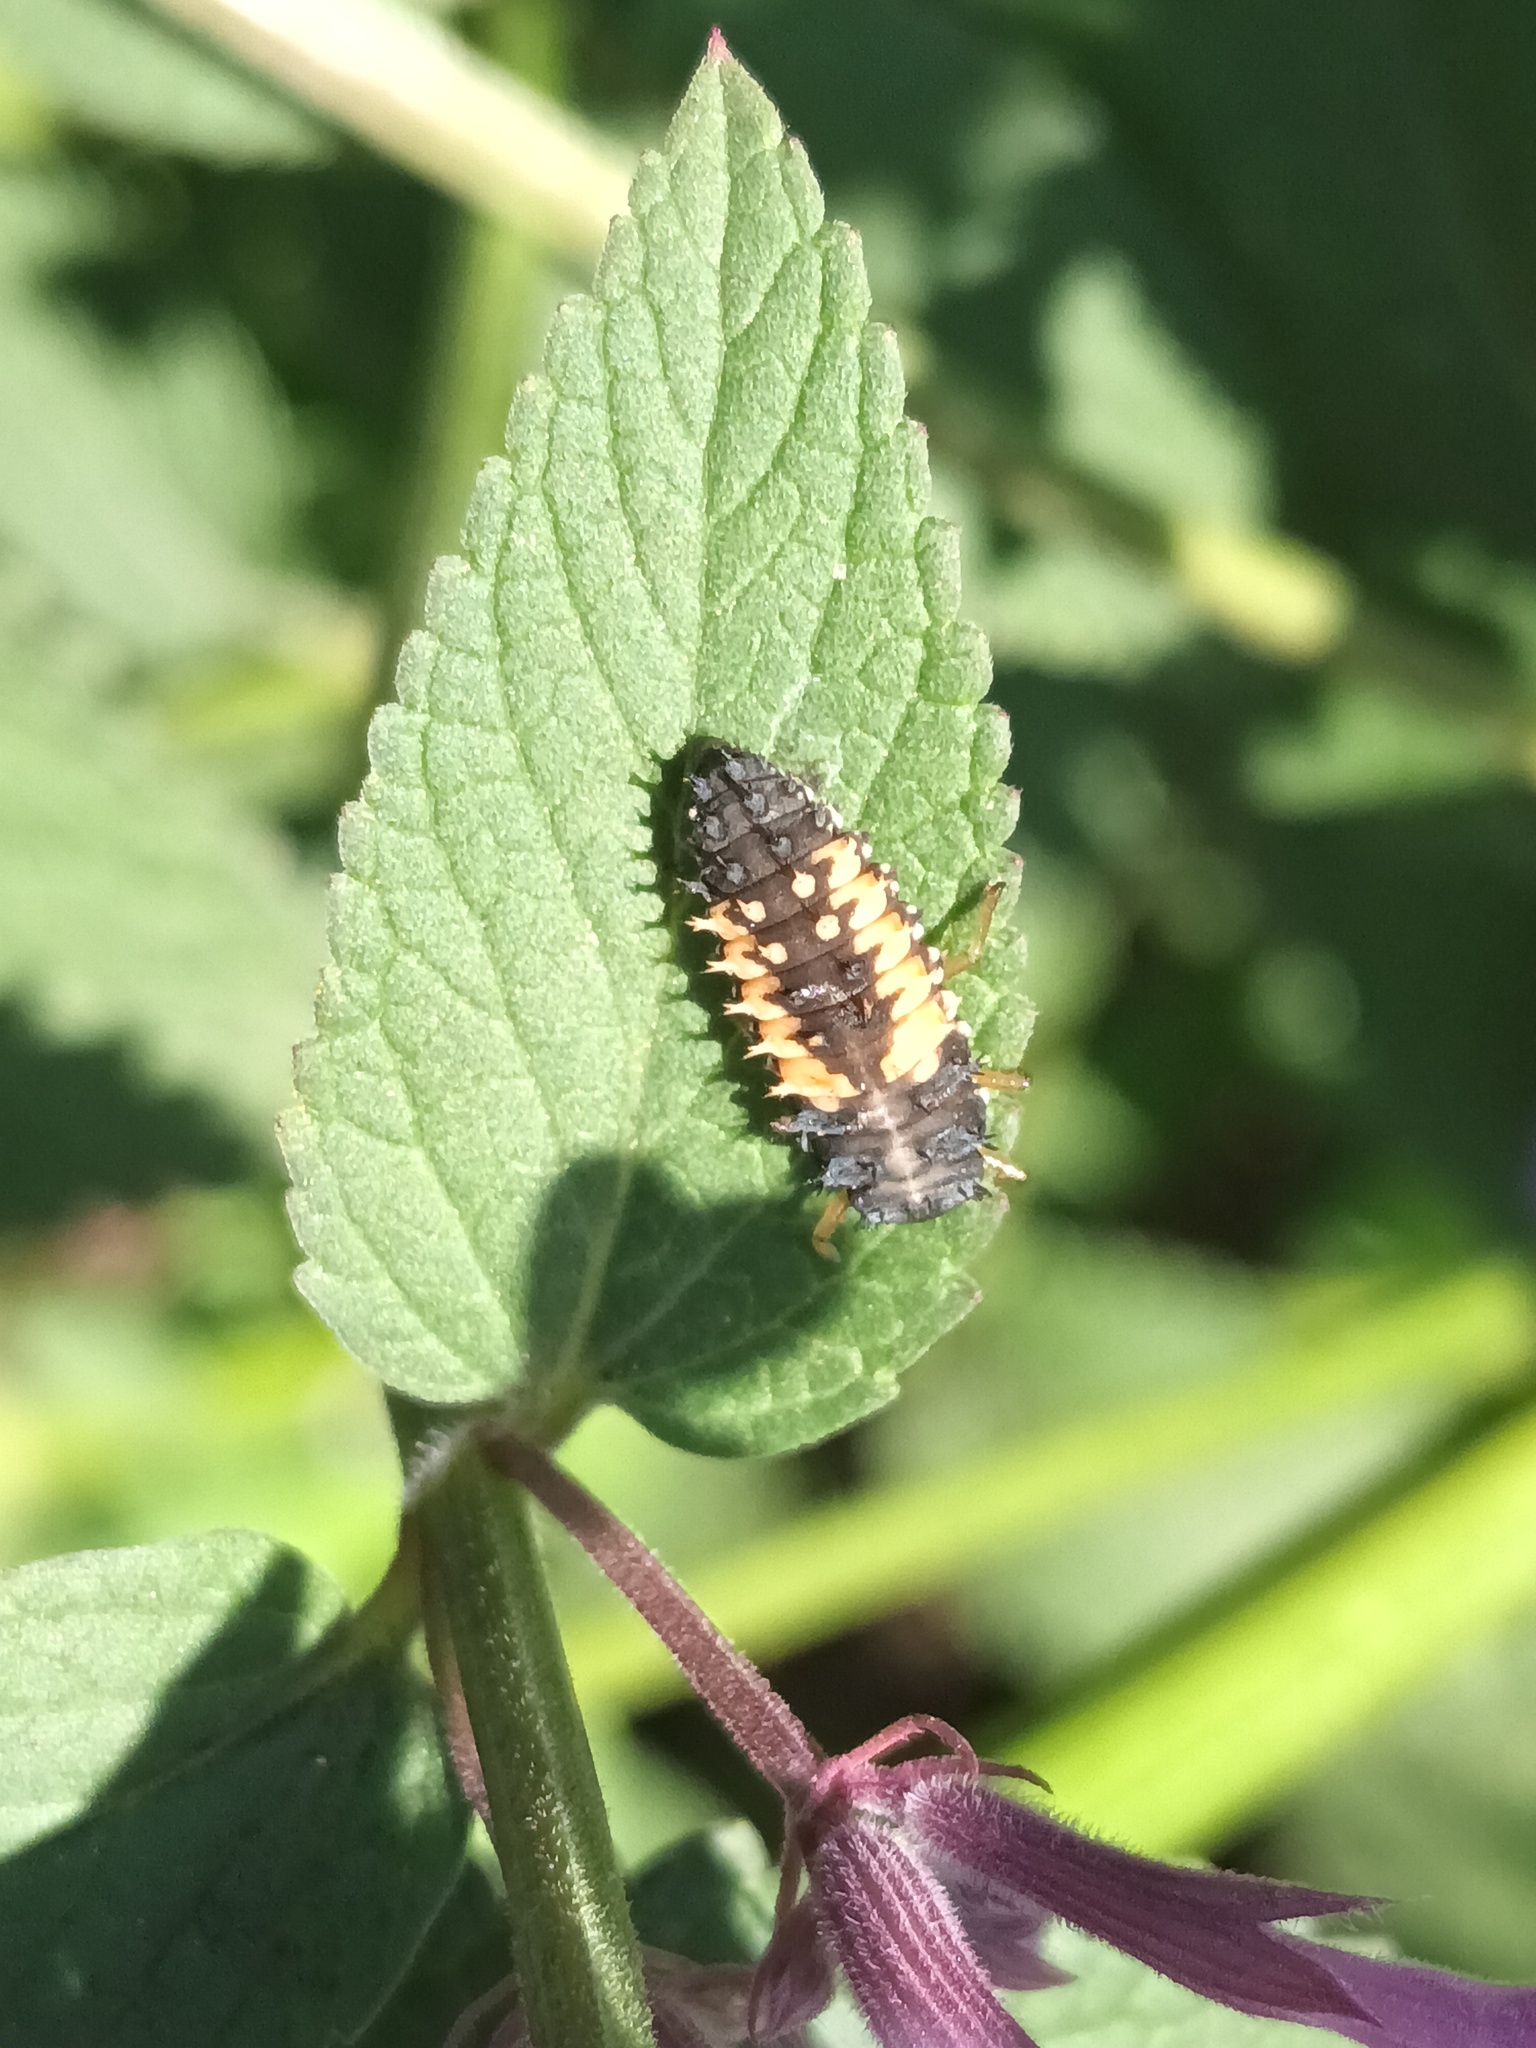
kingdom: Animalia
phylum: Arthropoda
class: Insecta
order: Coleoptera
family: Coccinellidae
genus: Harmonia
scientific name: Harmonia axyridis
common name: Harlequin ladybird
